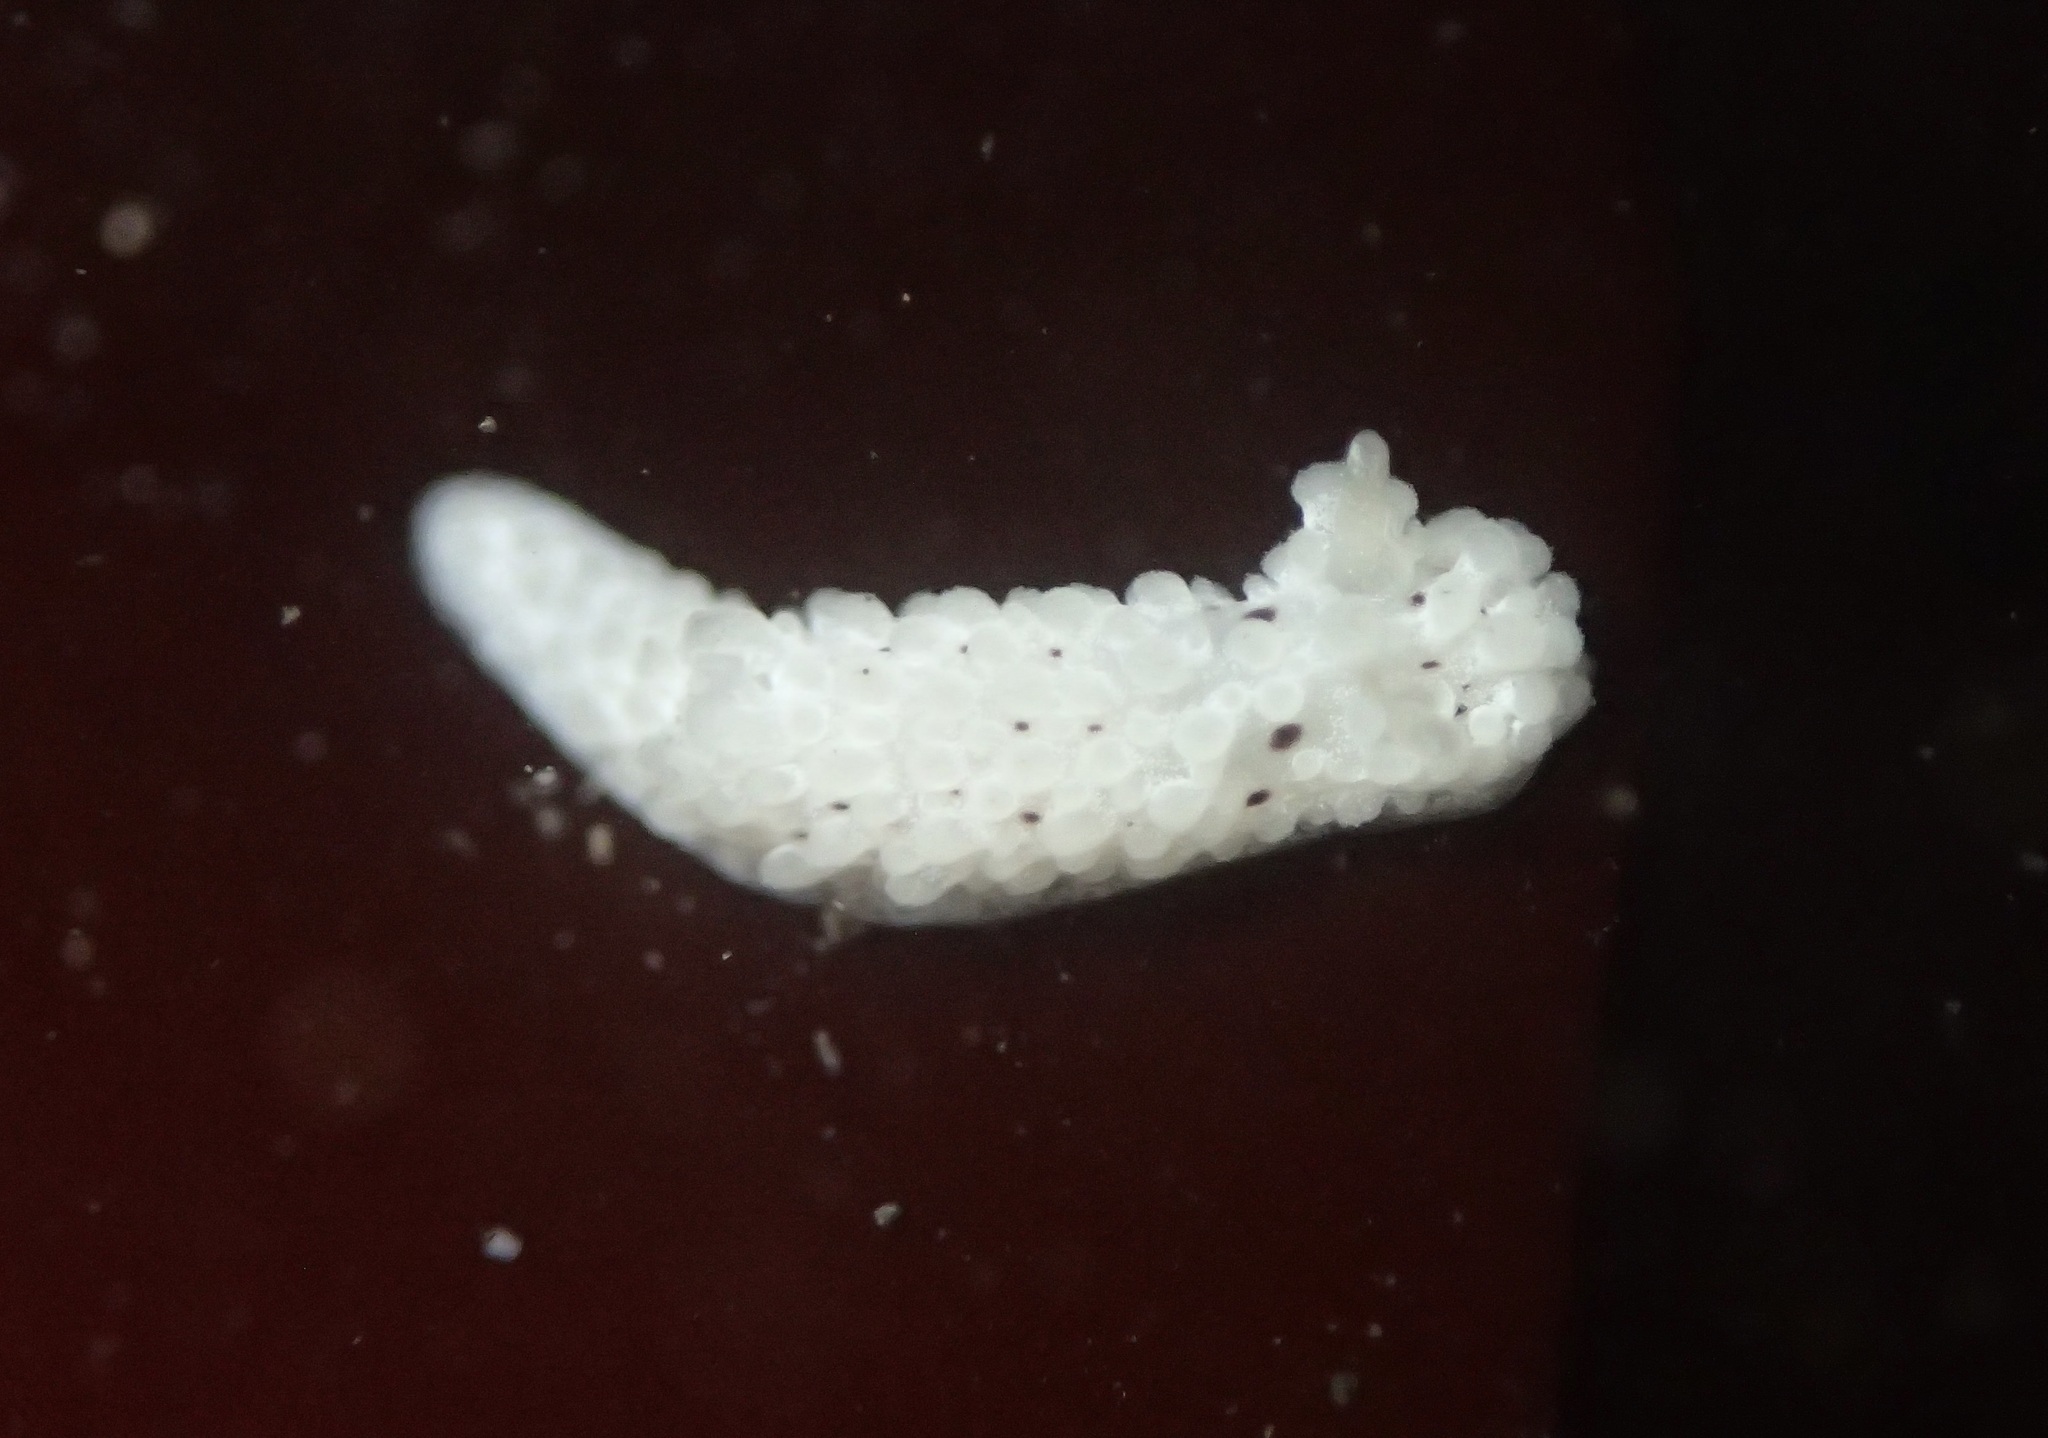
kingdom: Animalia
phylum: Mollusca
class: Gastropoda
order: Nudibranchia
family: Aegiridae
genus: Aegires
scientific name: Aegires albopunctatus
